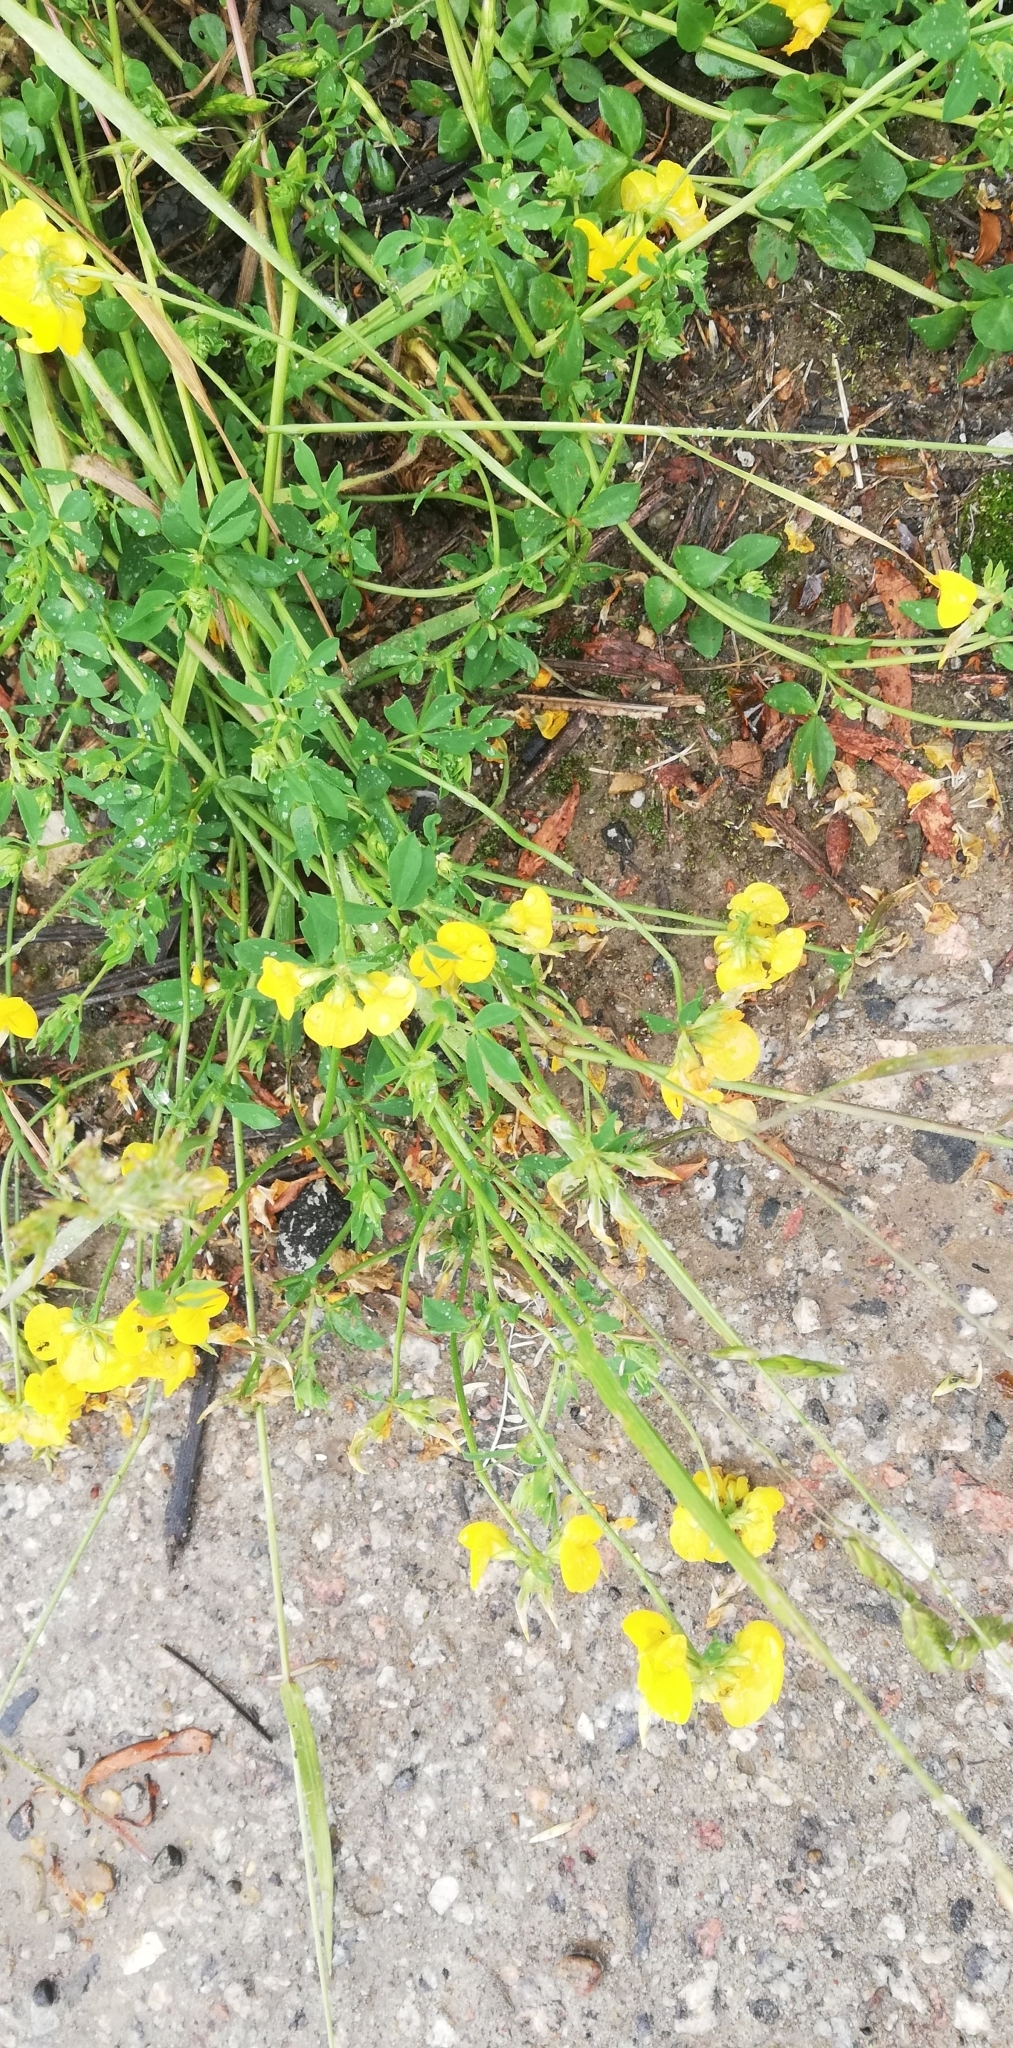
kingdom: Plantae
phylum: Tracheophyta
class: Magnoliopsida
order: Fabales
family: Fabaceae
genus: Lotus
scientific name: Lotus corniculatus
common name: Common bird's-foot-trefoil
